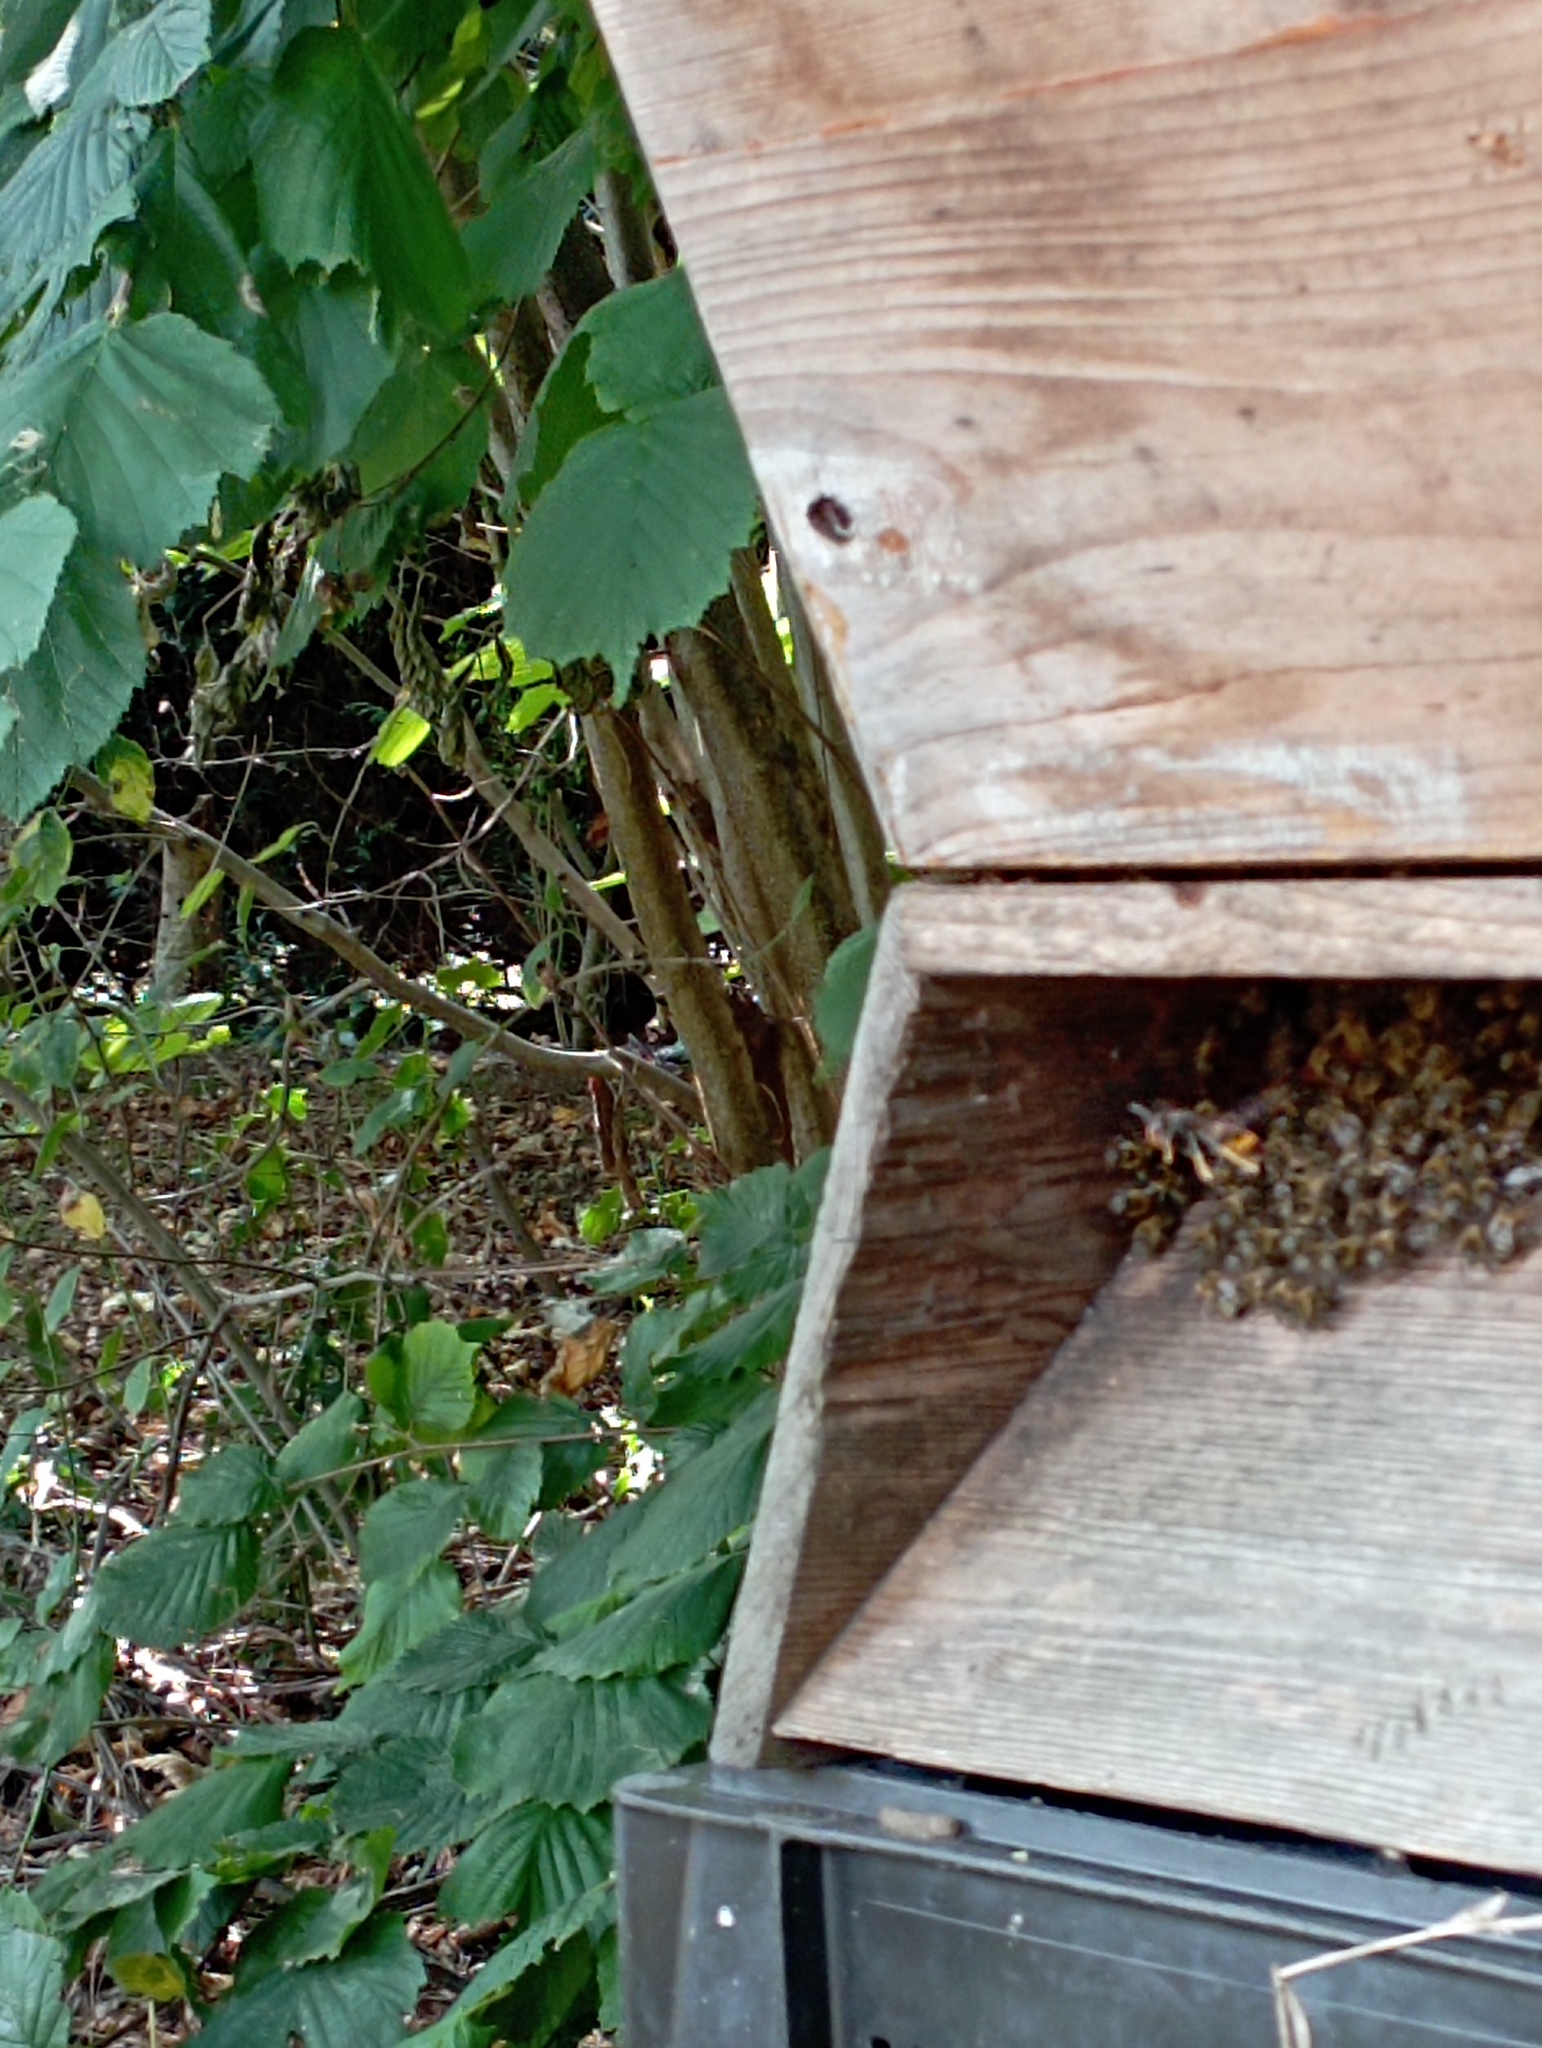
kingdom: Animalia
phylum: Arthropoda
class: Insecta
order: Hymenoptera
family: Vespidae
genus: Vespa
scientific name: Vespa velutina
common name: Asian hornet
